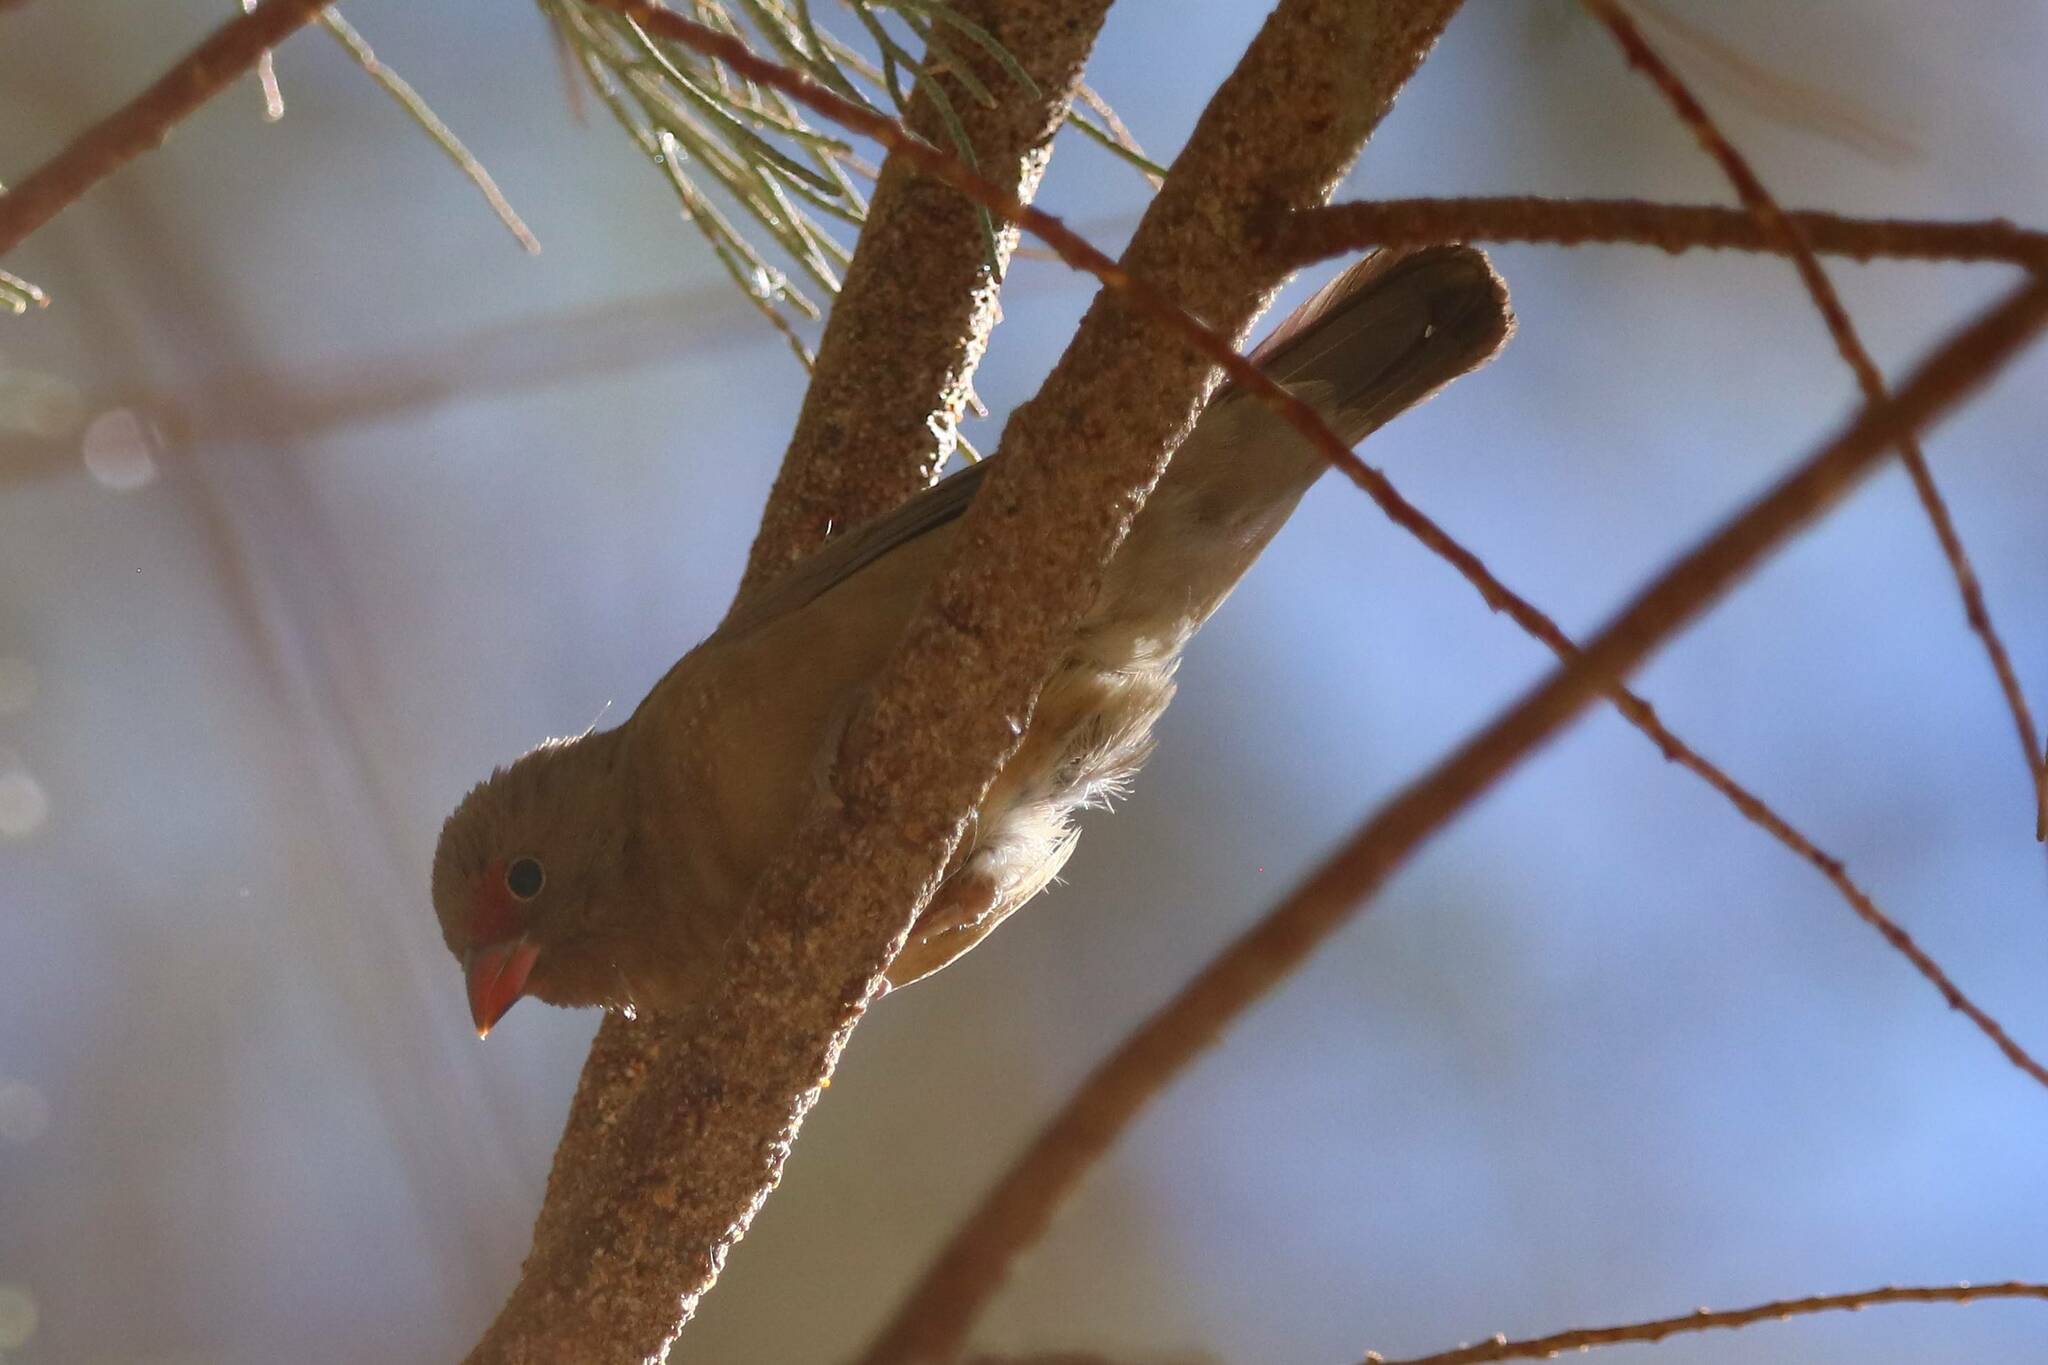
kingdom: Animalia
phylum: Chordata
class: Aves
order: Passeriformes
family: Estrildidae
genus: Lagonosticta
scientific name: Lagonosticta senegala
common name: Red-billed firefinch
